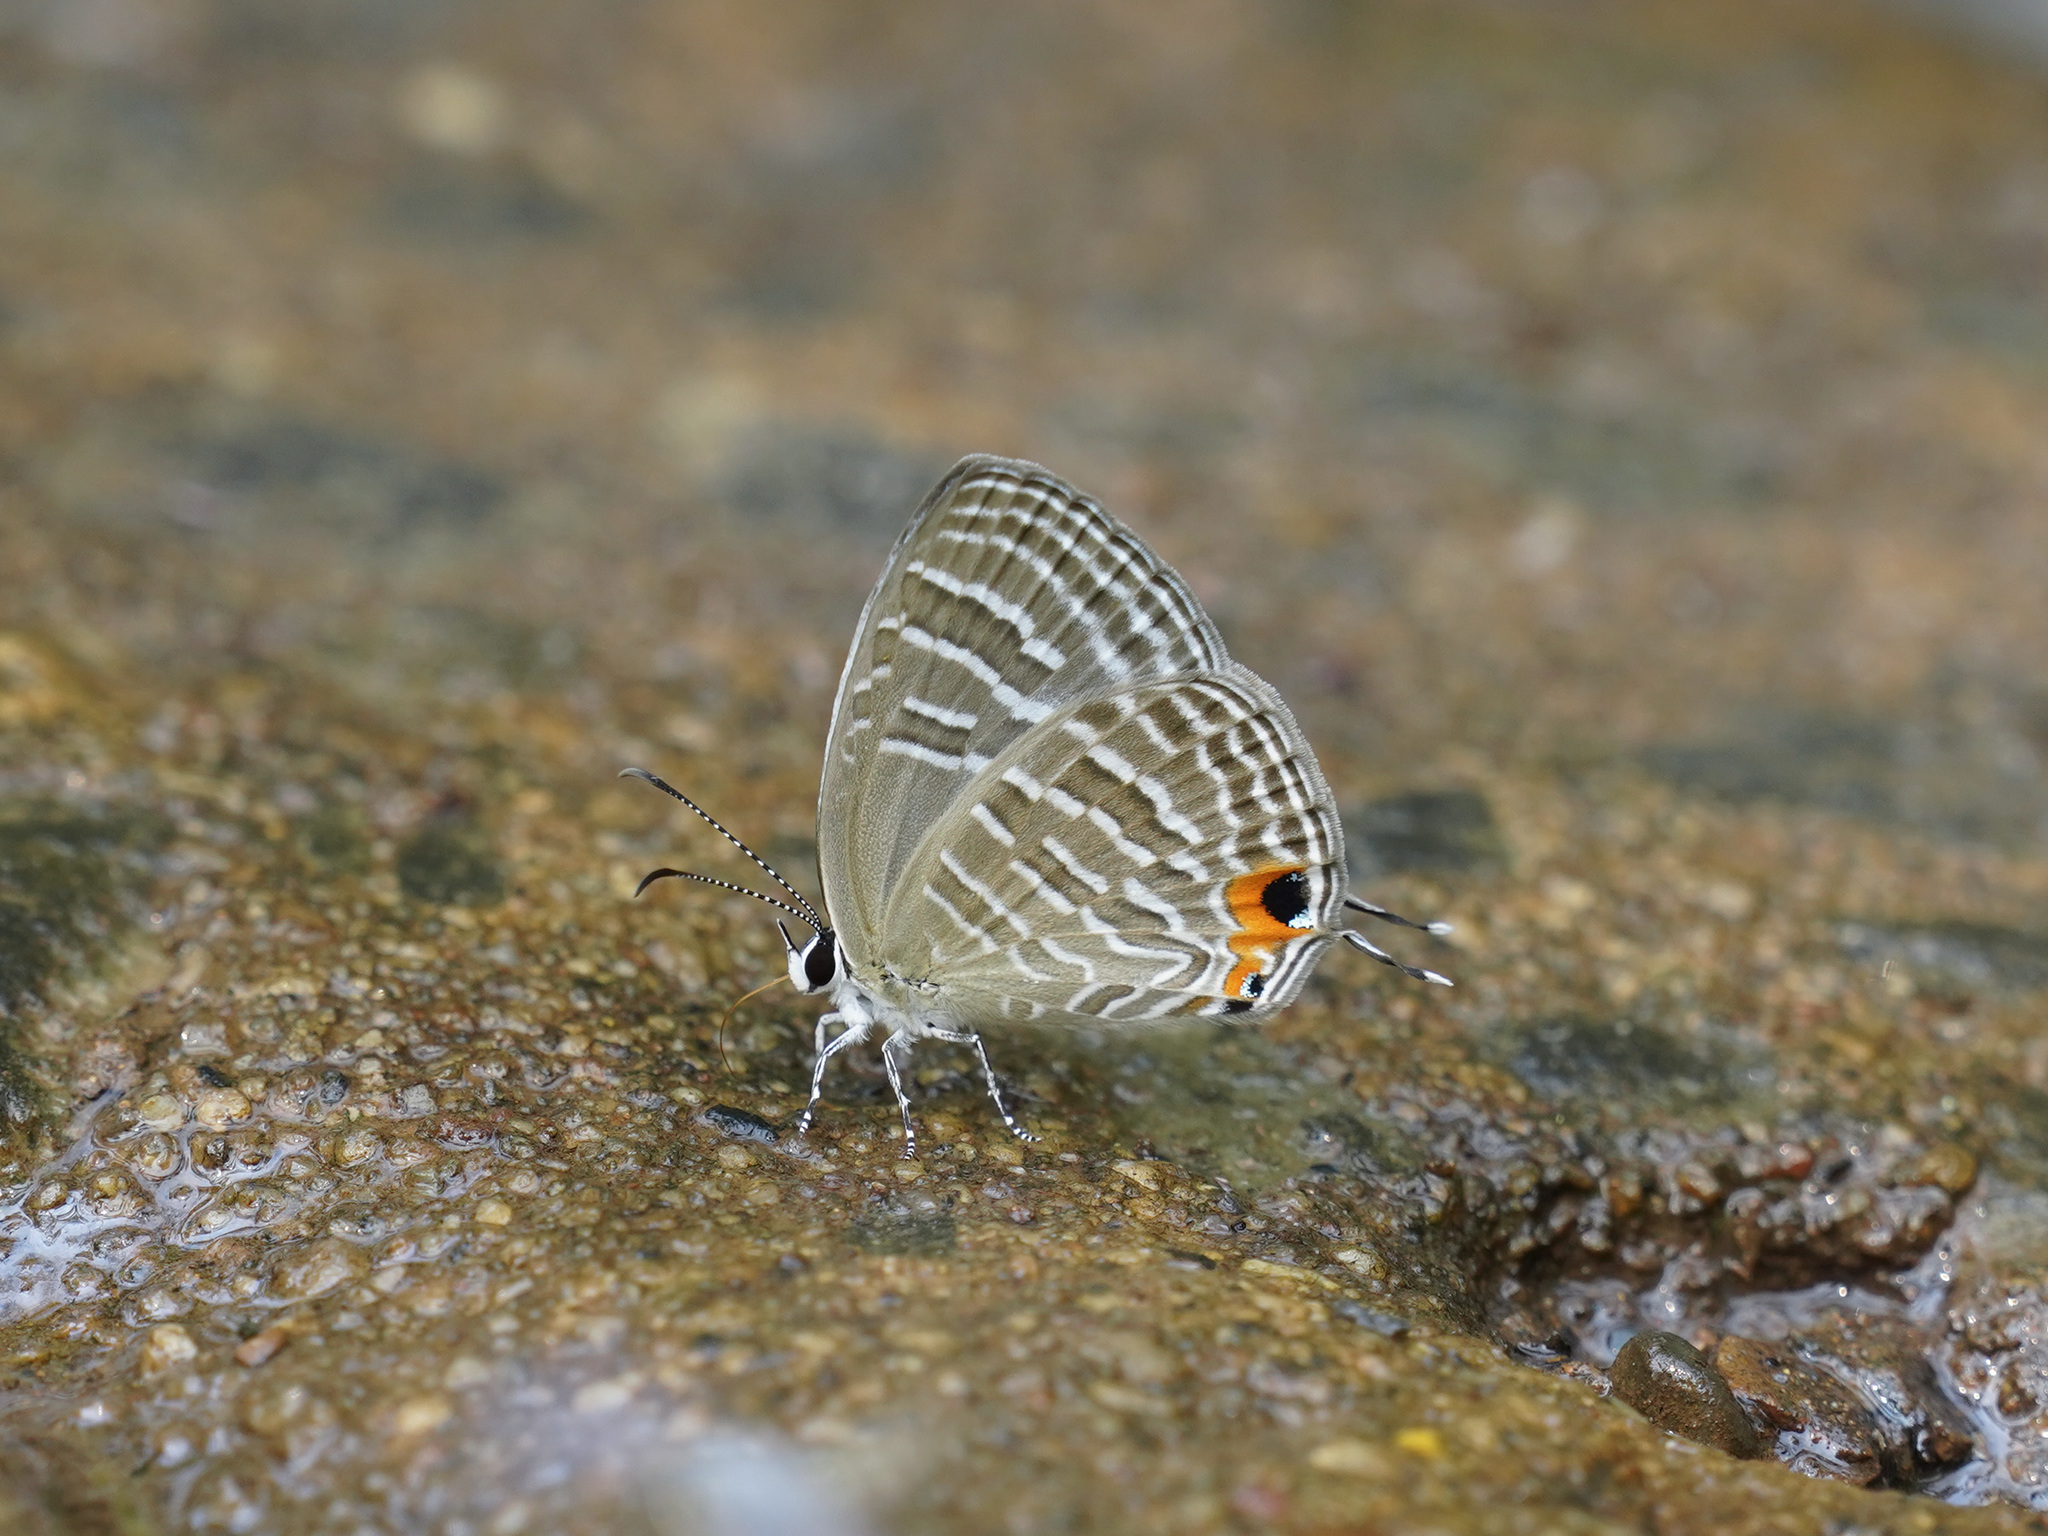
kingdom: Animalia
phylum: Arthropoda
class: Insecta
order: Lepidoptera
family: Lycaenidae
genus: Jamides
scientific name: Jamides celeno
